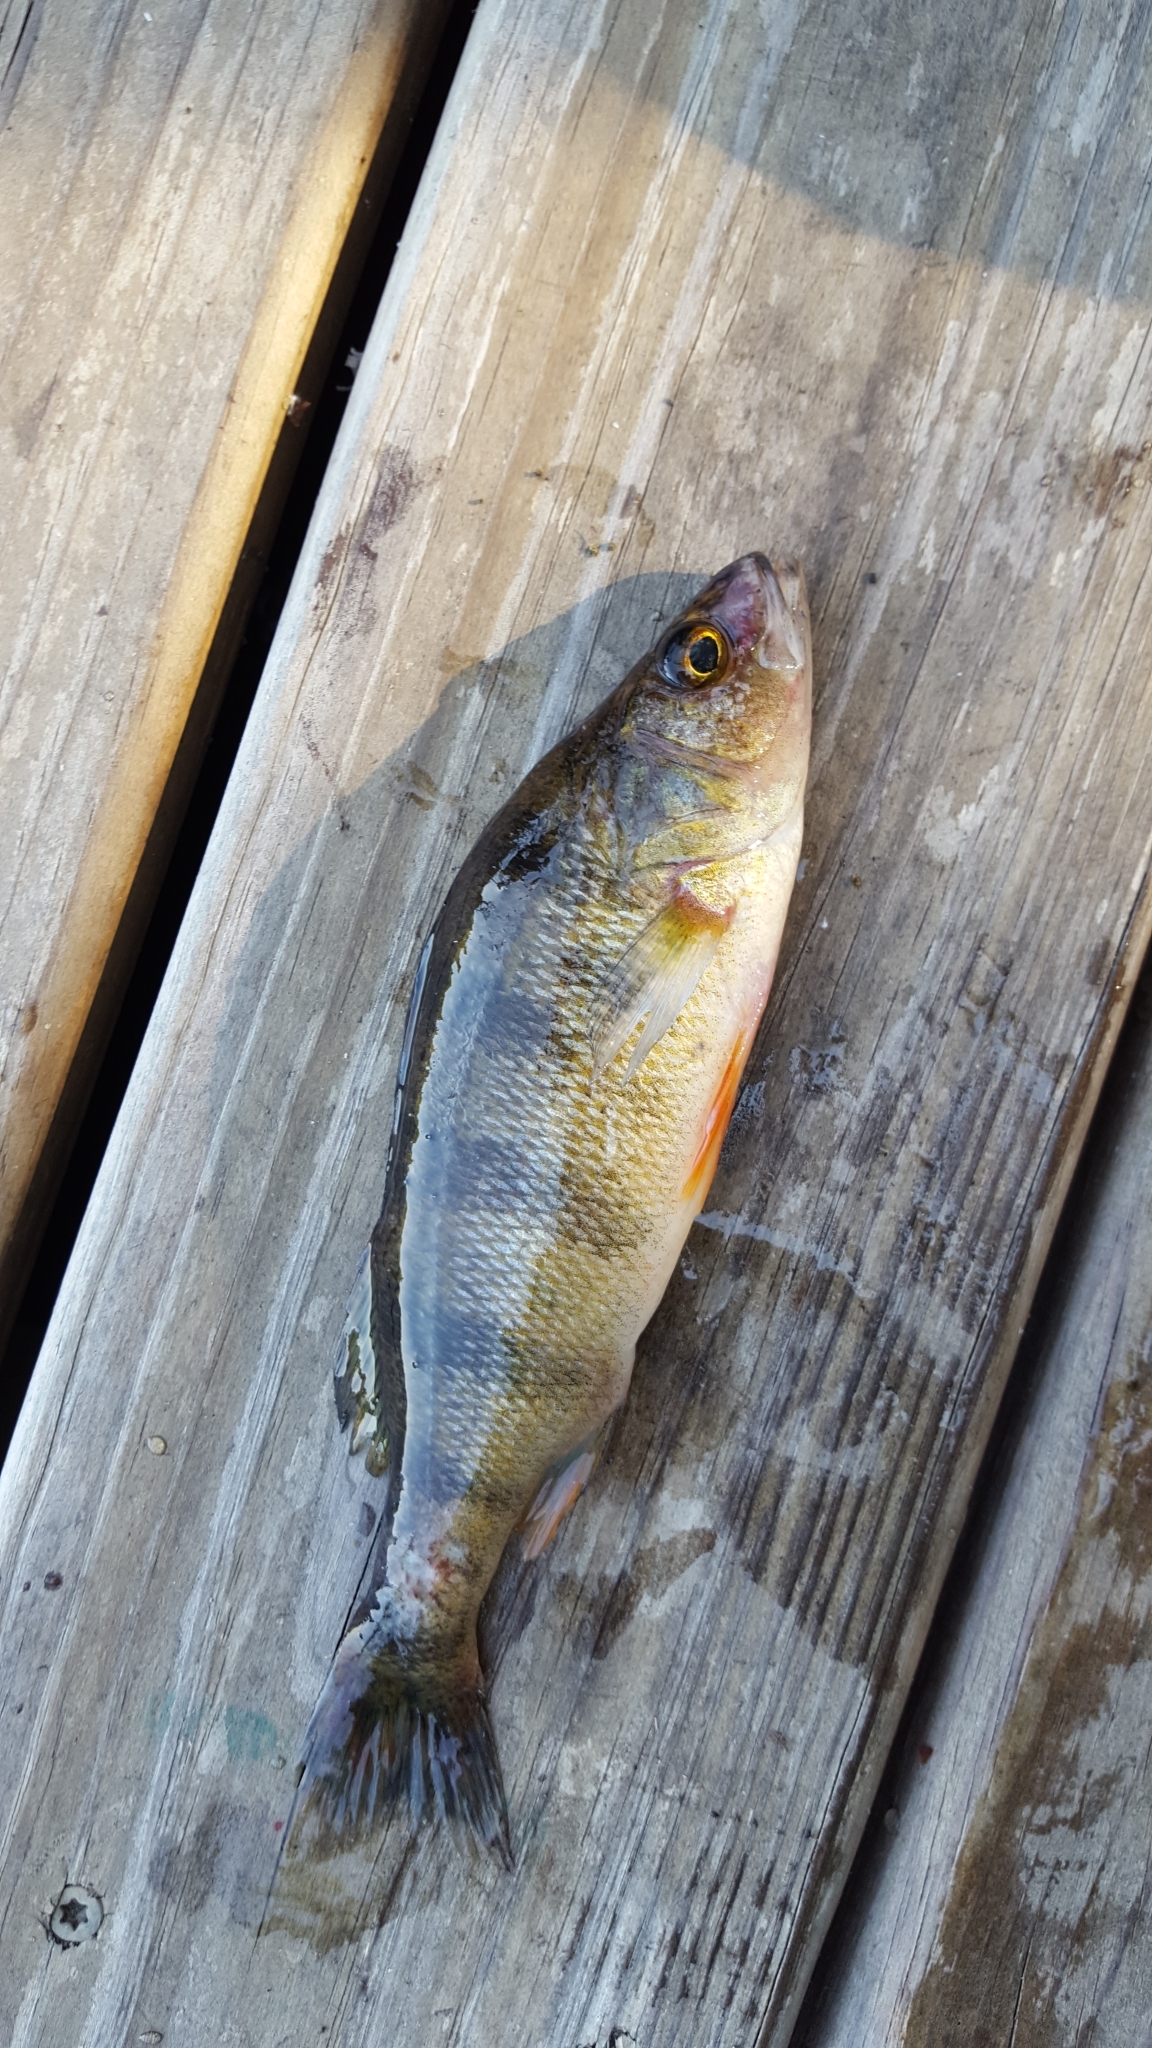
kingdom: Animalia
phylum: Chordata
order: Perciformes
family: Percidae
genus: Perca
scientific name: Perca flavescens
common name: Yellow perch
